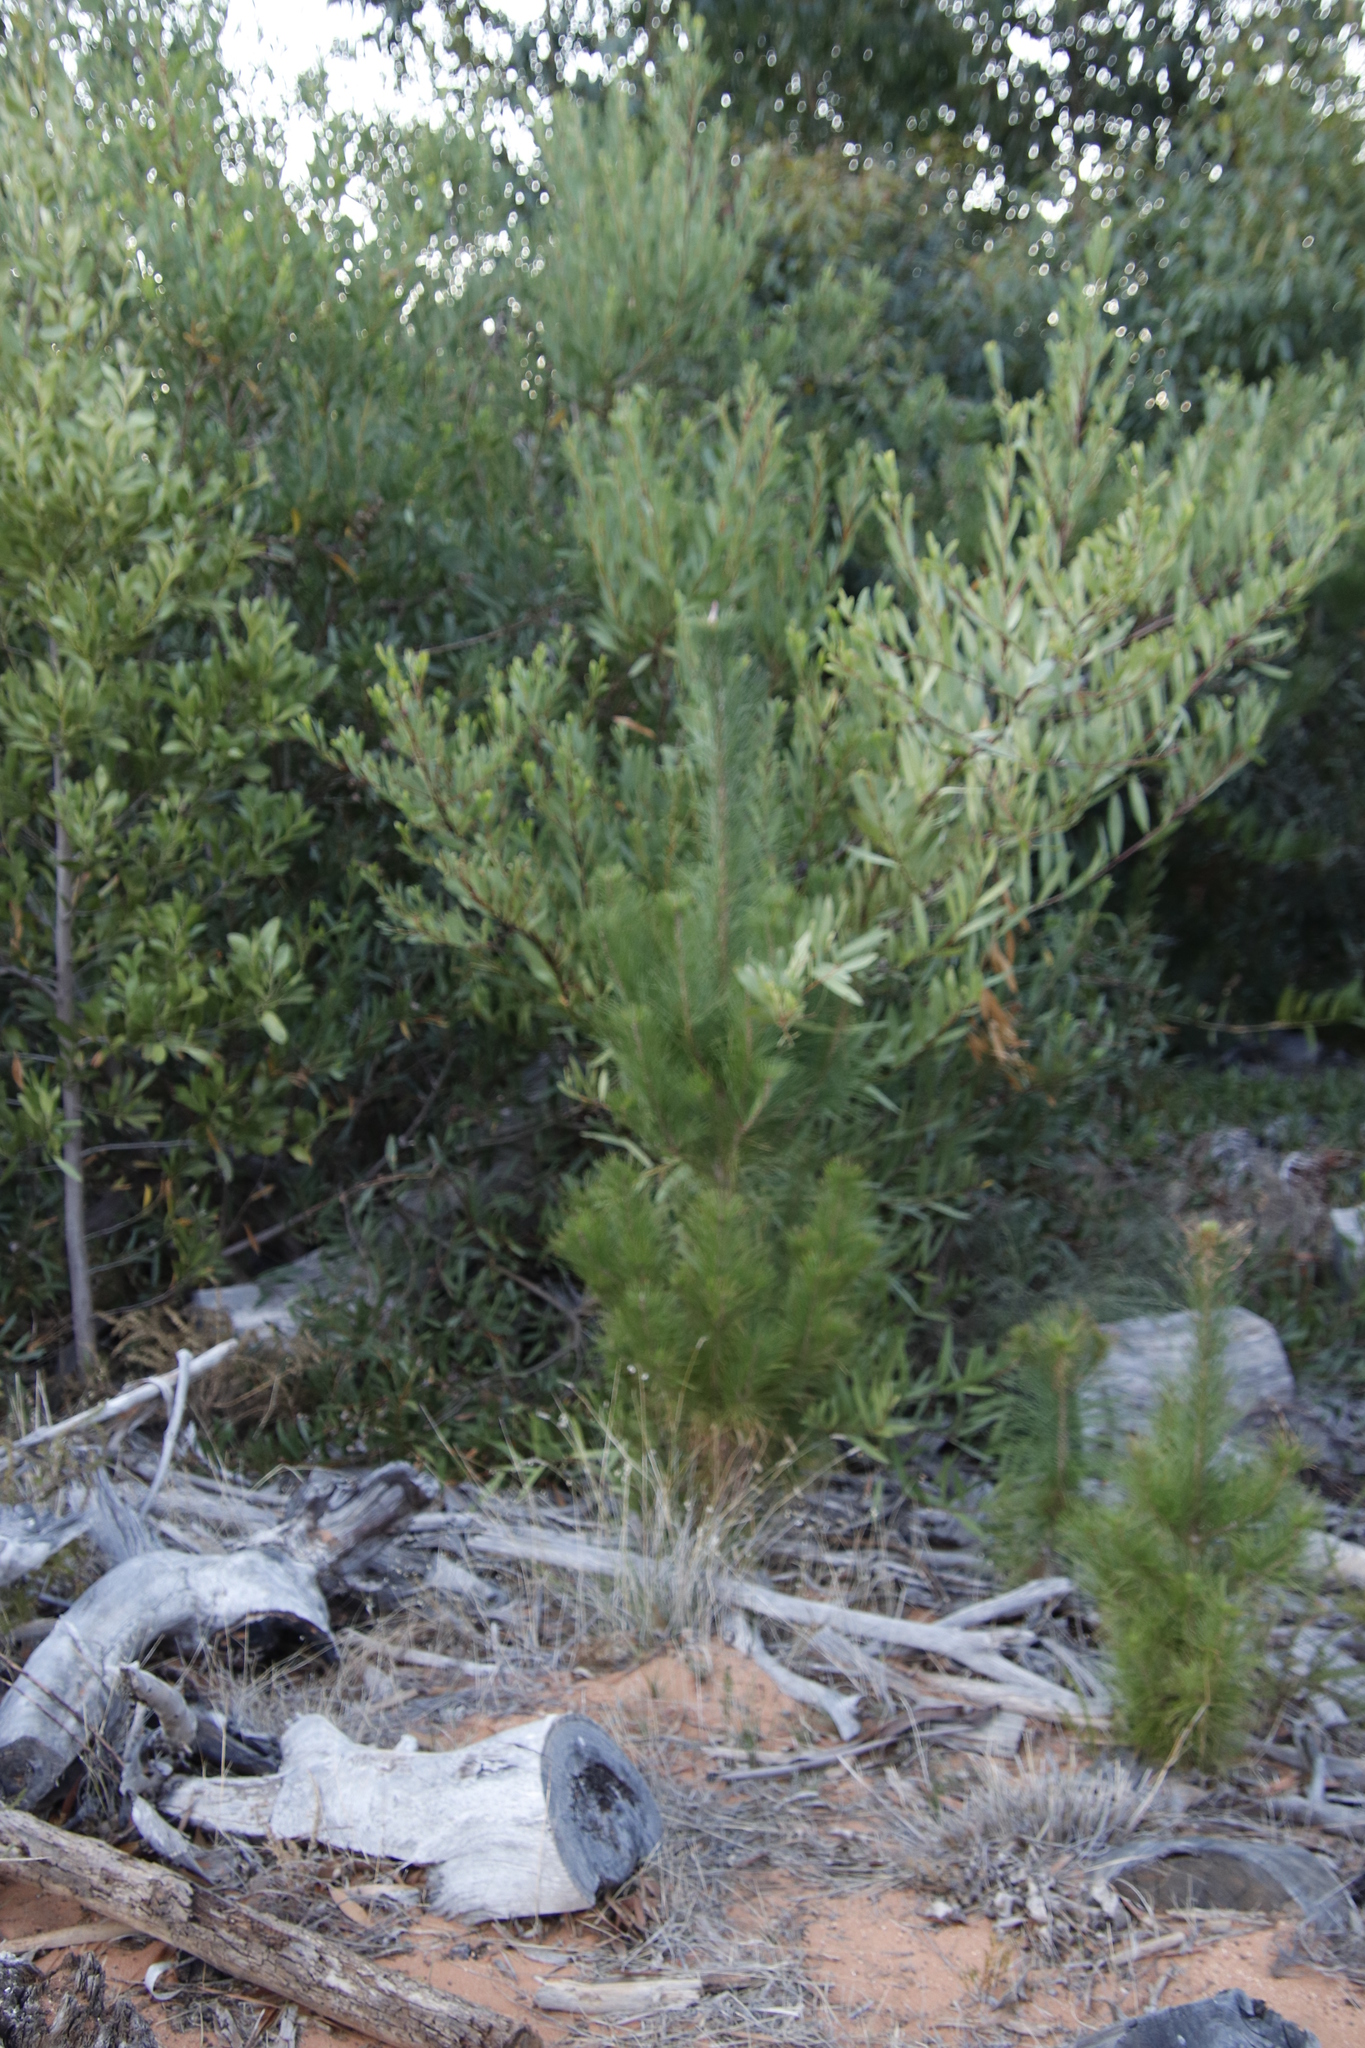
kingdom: Plantae
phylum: Tracheophyta
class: Pinopsida
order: Pinales
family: Pinaceae
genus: Pinus
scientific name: Pinus radiata
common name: Monterey pine
